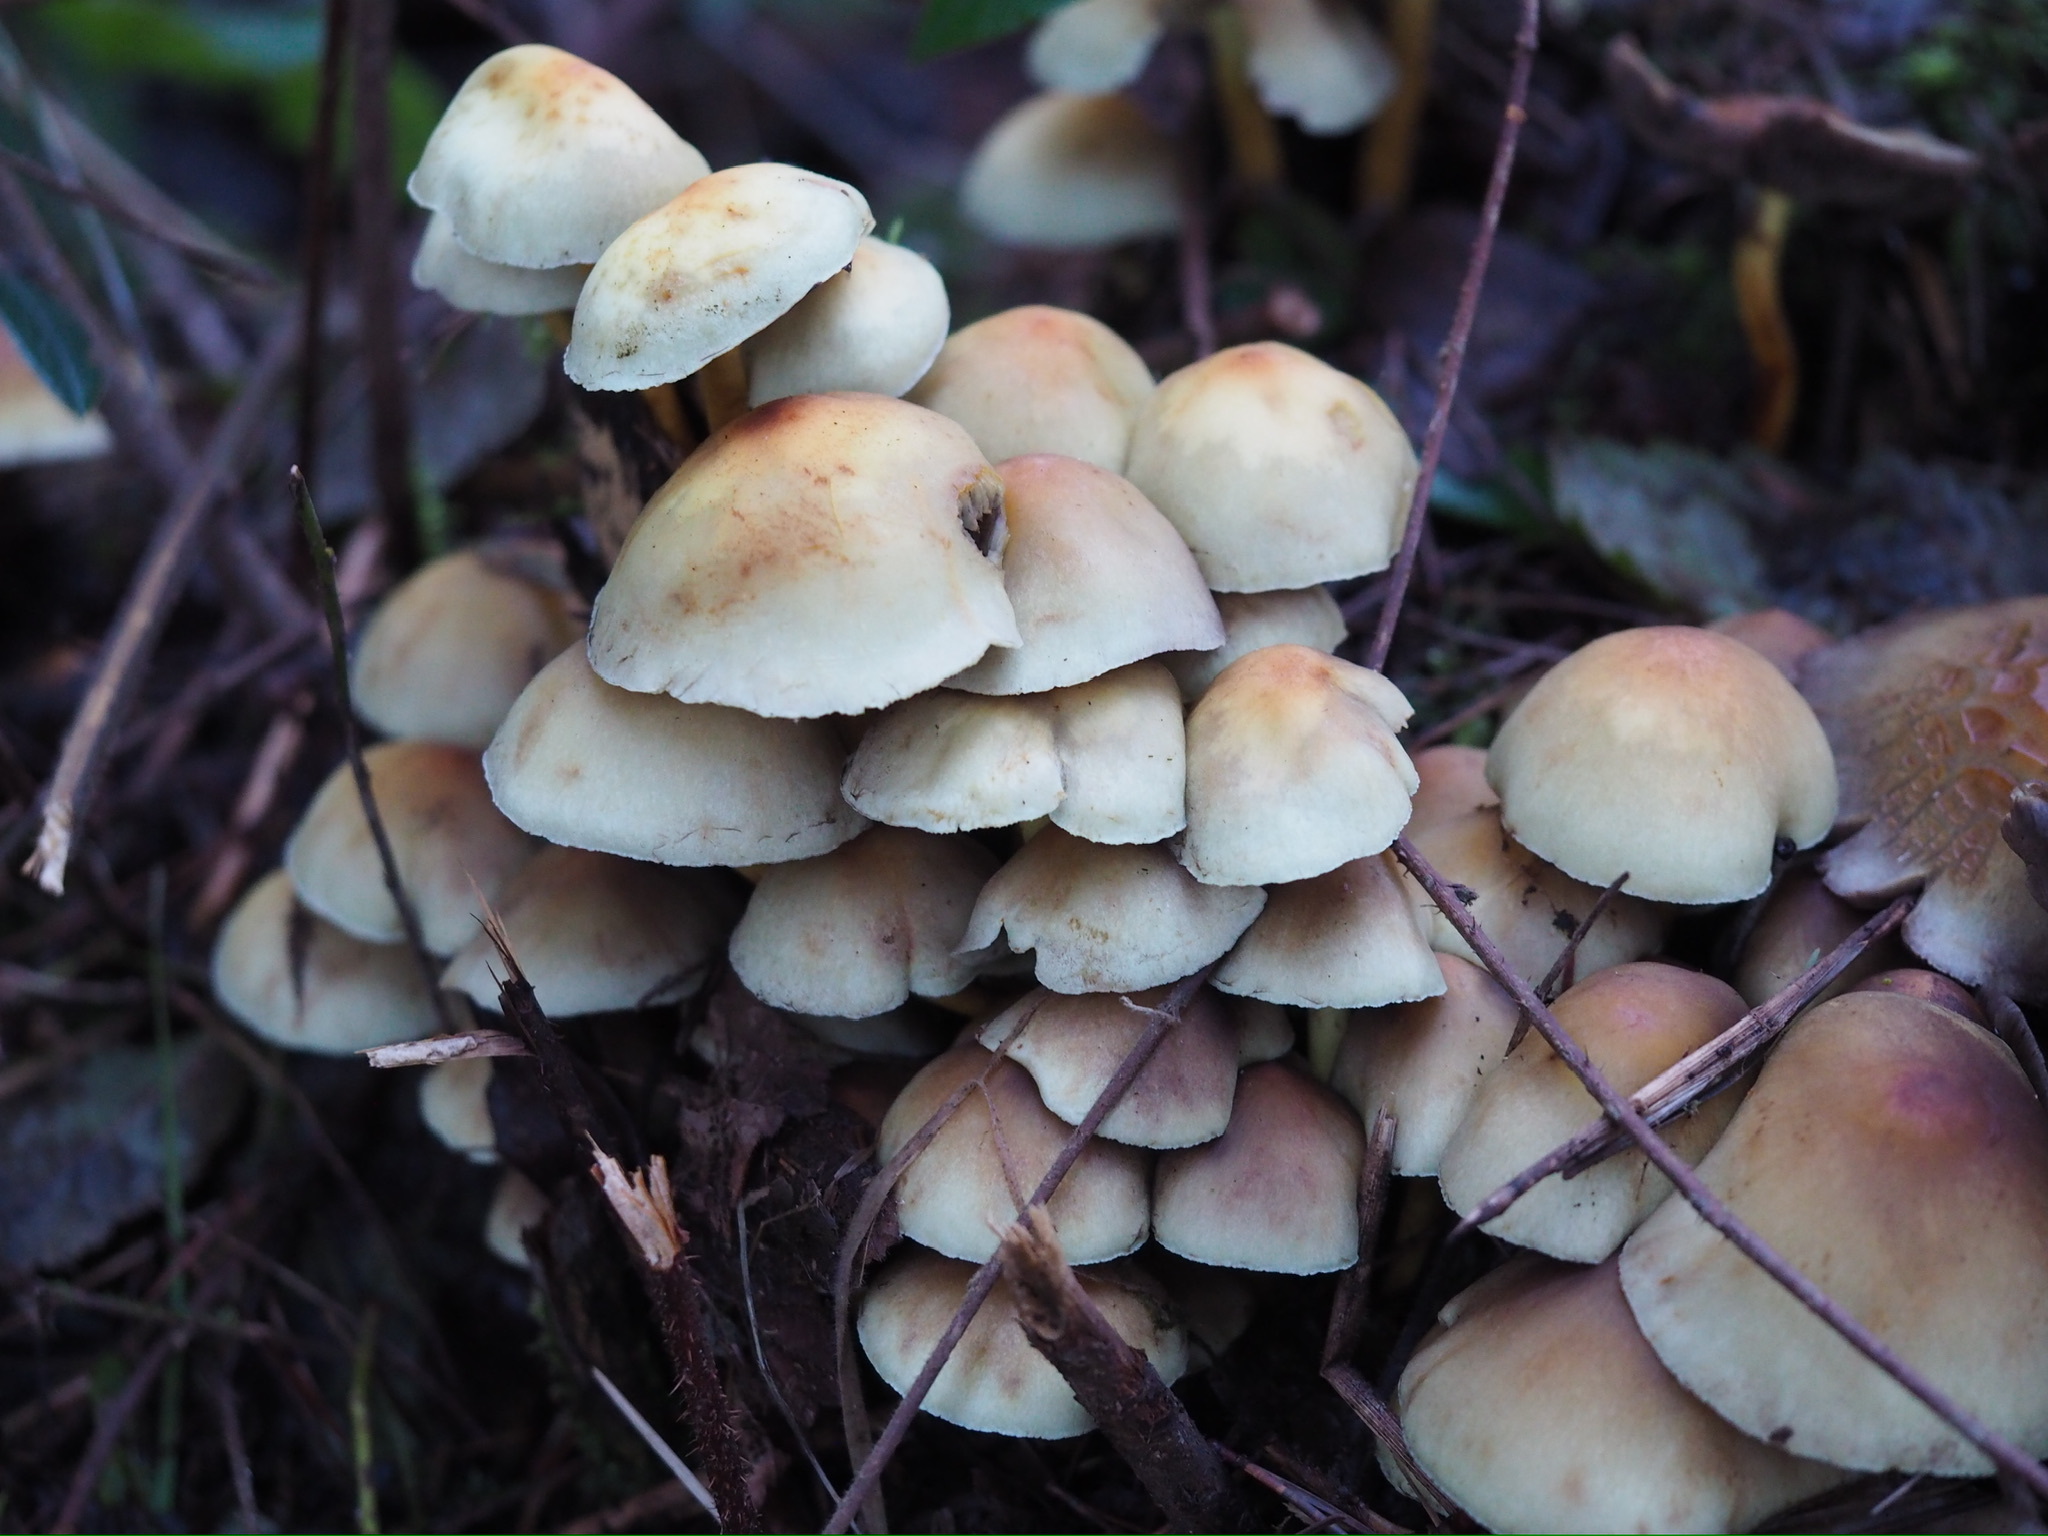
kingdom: Fungi
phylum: Basidiomycota
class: Agaricomycetes
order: Agaricales
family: Strophariaceae
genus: Hypholoma
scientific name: Hypholoma fasciculare
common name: Sulphur tuft
